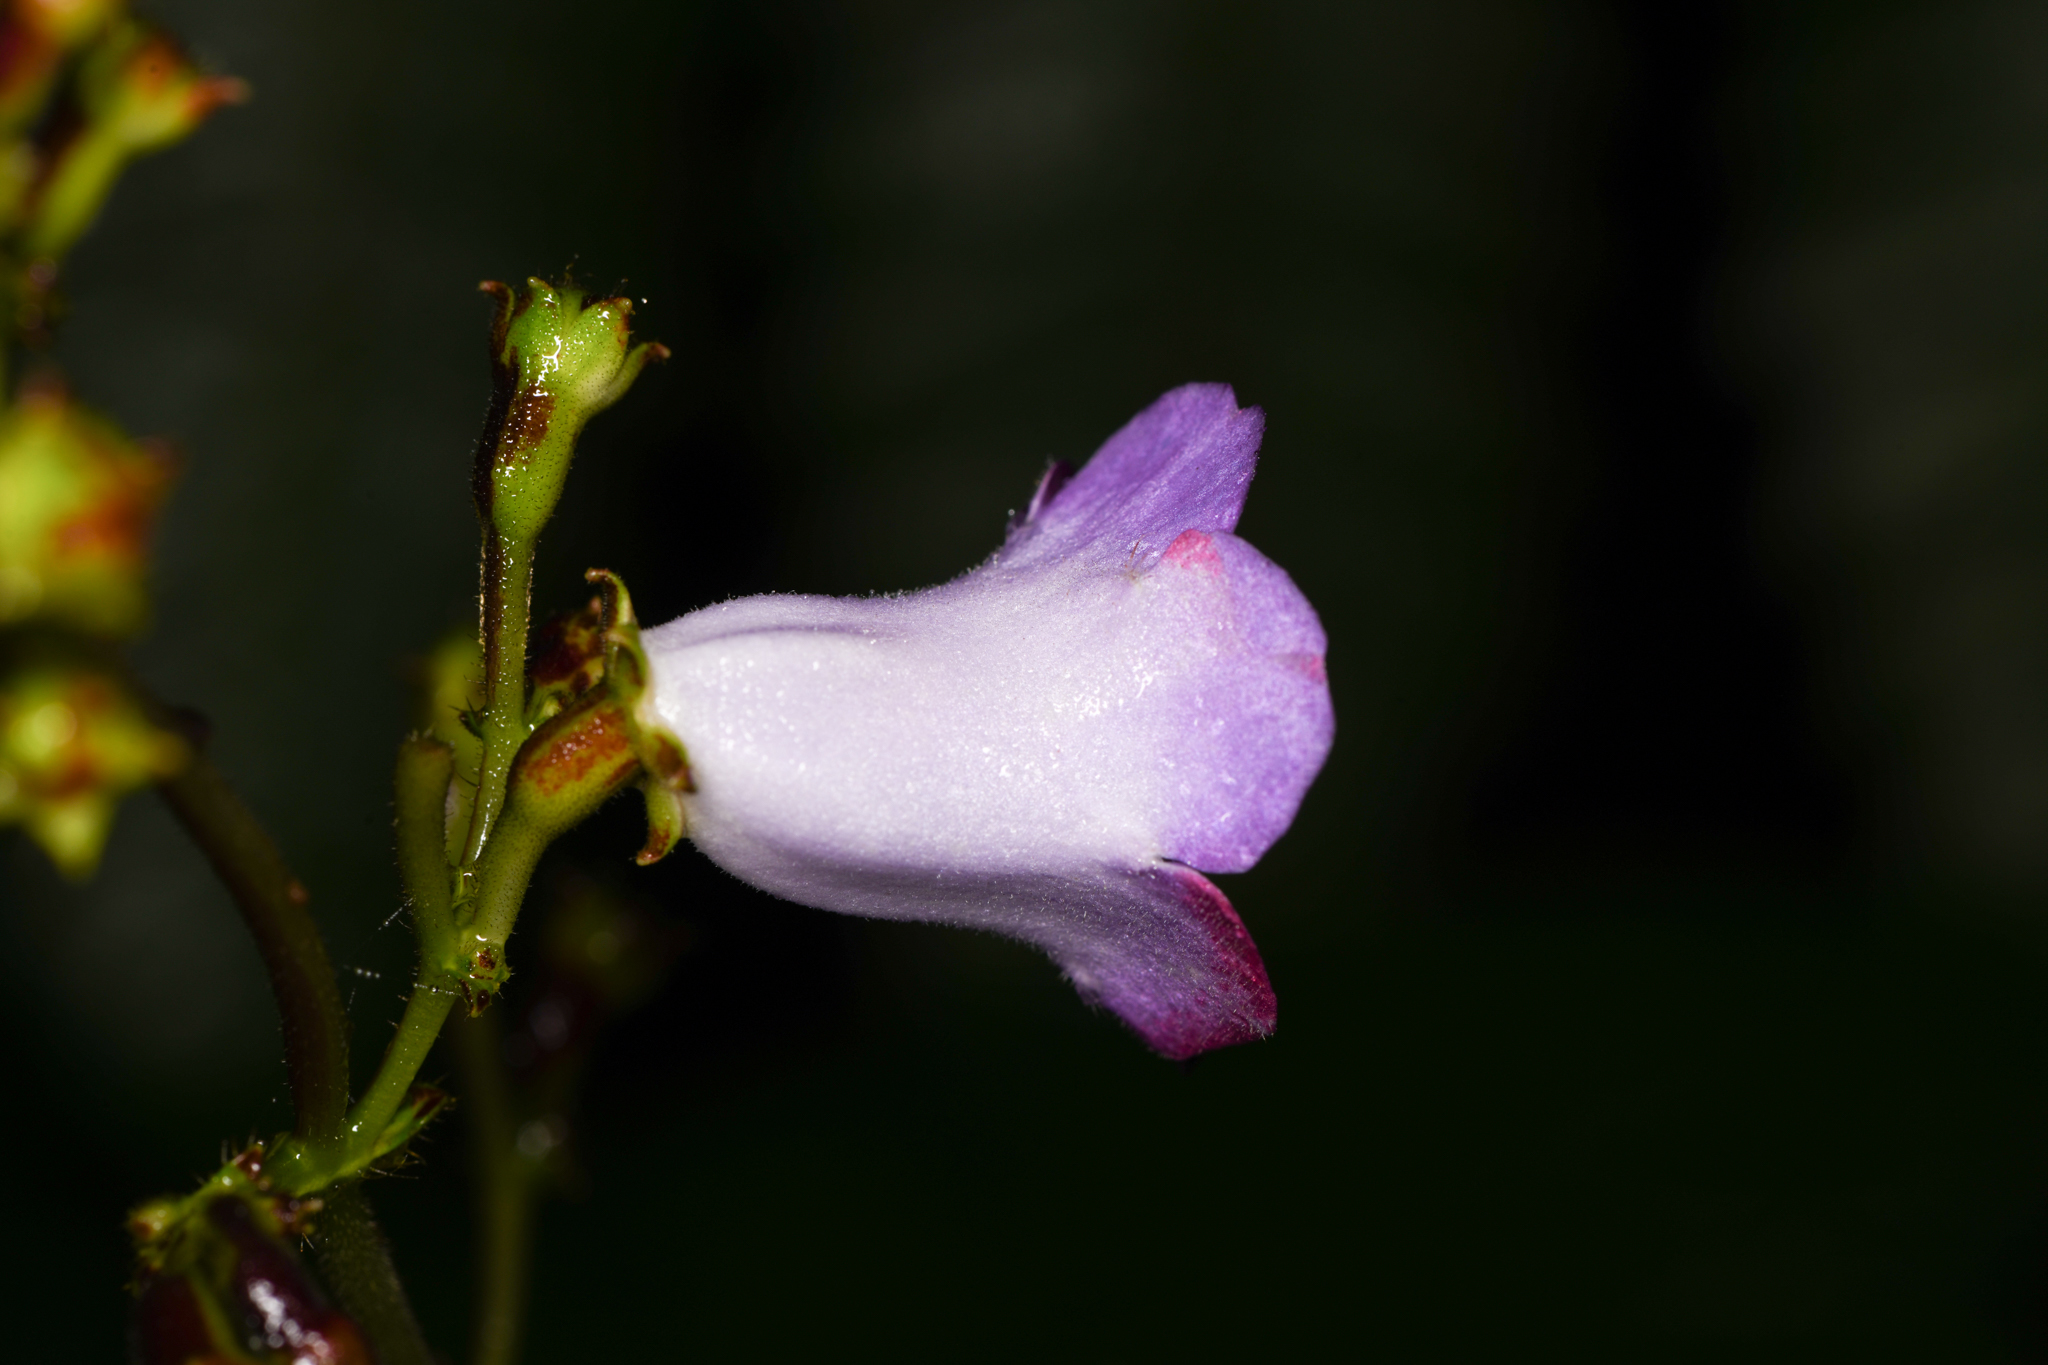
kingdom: Plantae
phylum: Tracheophyta
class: Magnoliopsida
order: Lamiales
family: Gesneriaceae
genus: Monopyle
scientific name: Monopyle maxonii
